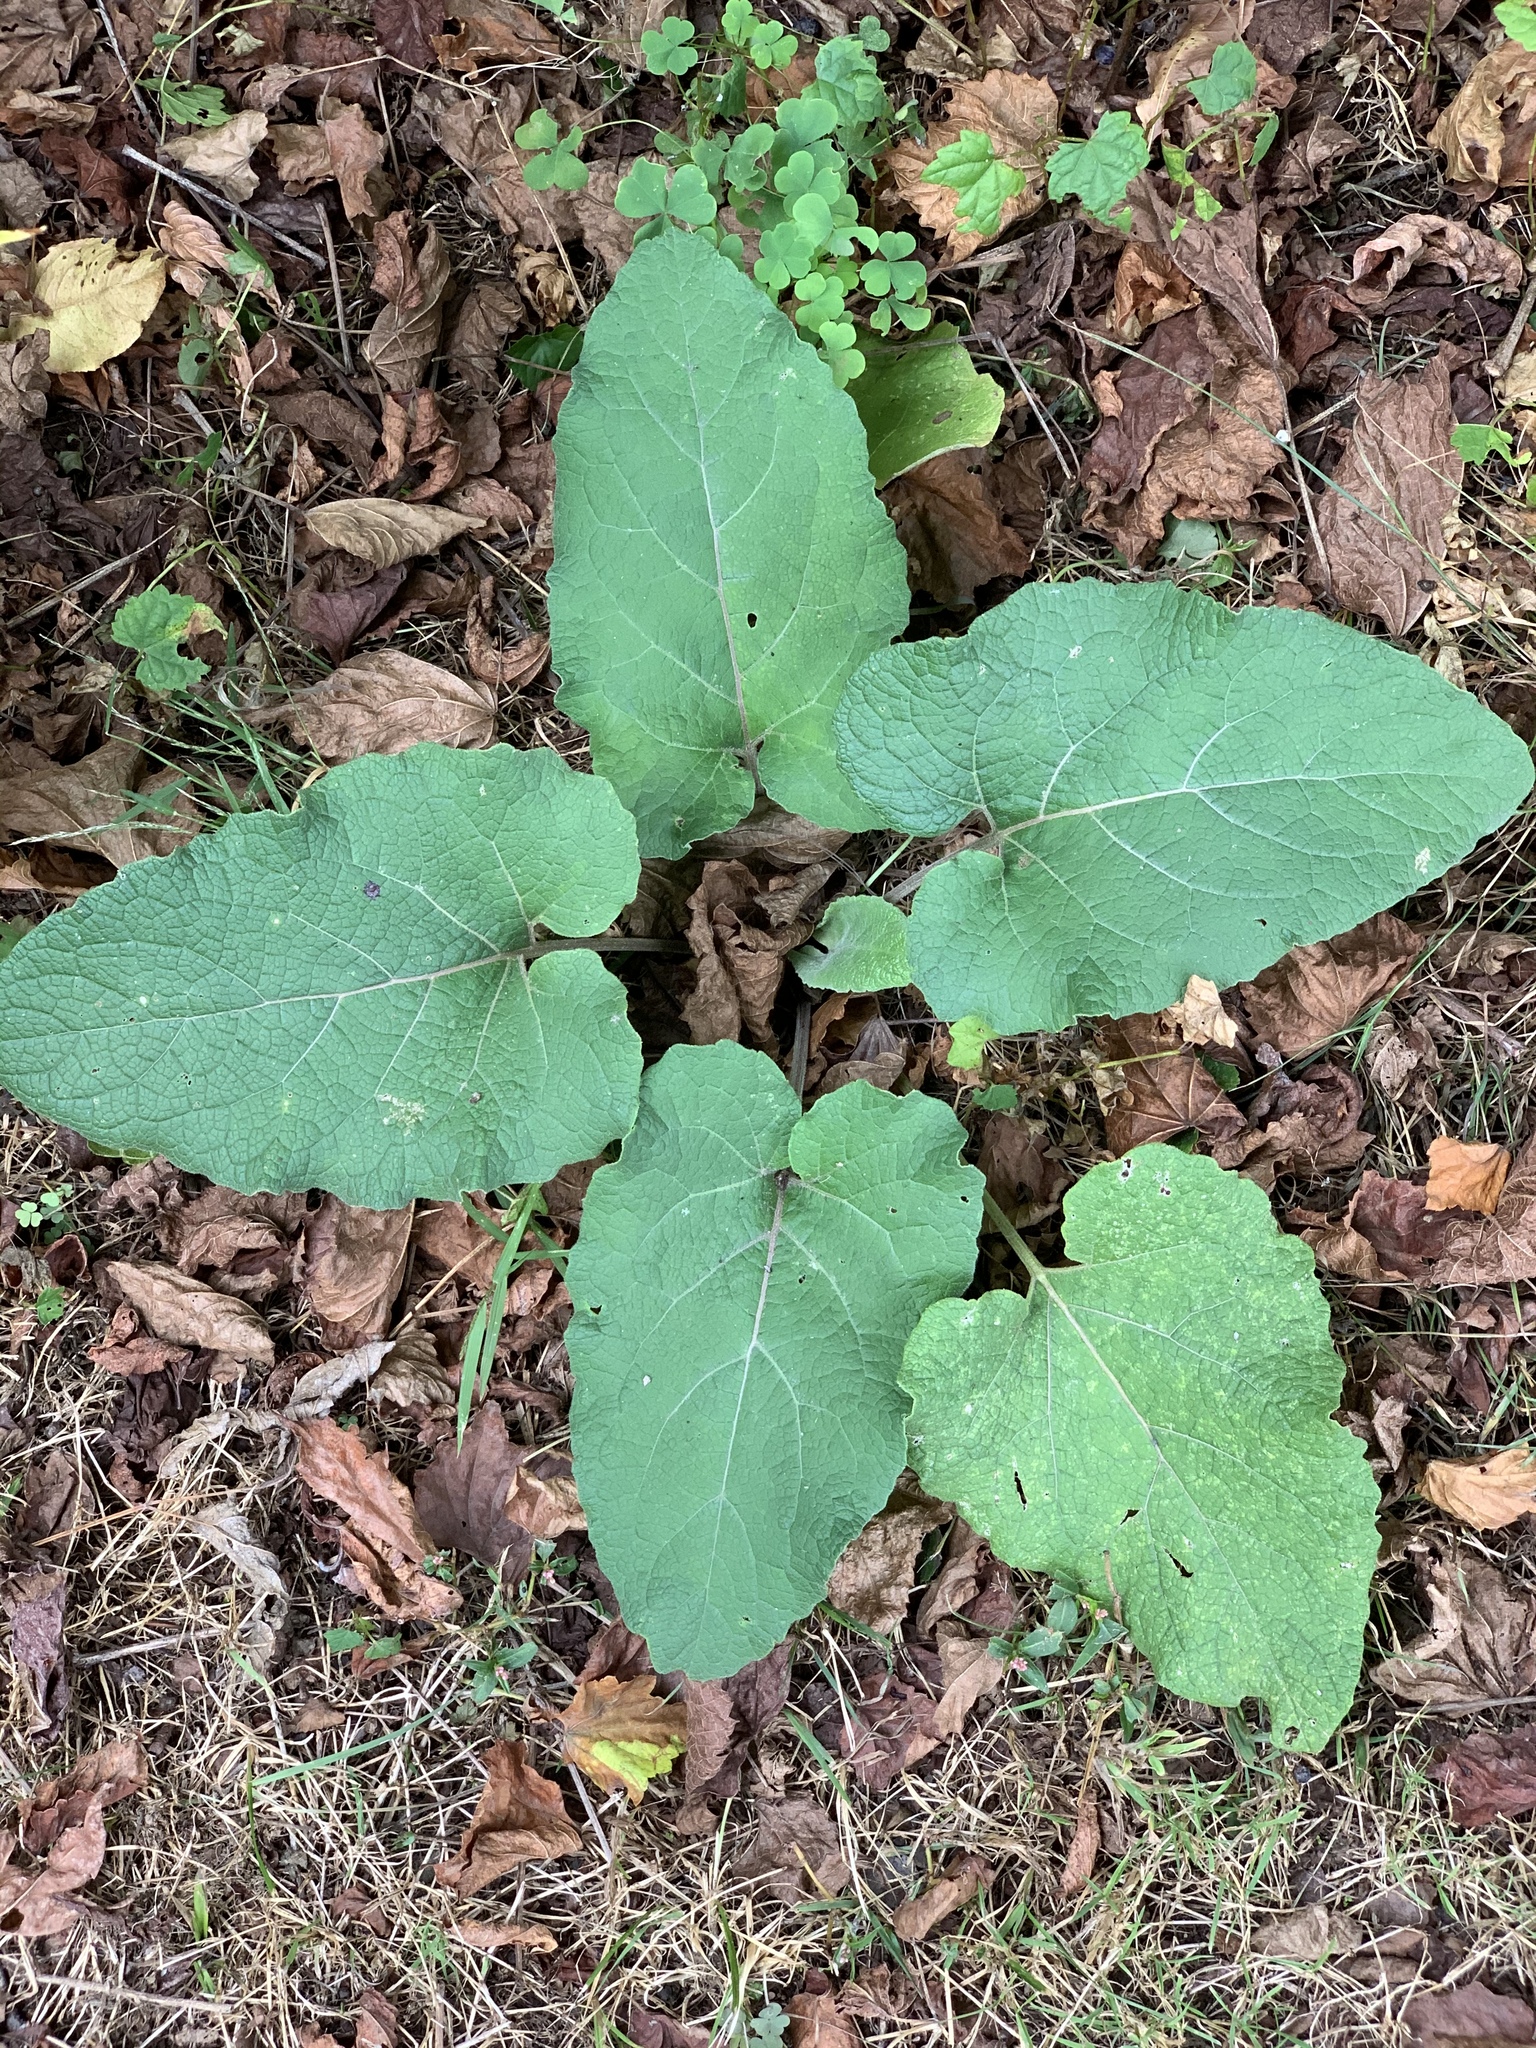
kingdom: Plantae
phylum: Tracheophyta
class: Magnoliopsida
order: Asterales
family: Asteraceae
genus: Arctium
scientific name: Arctium
